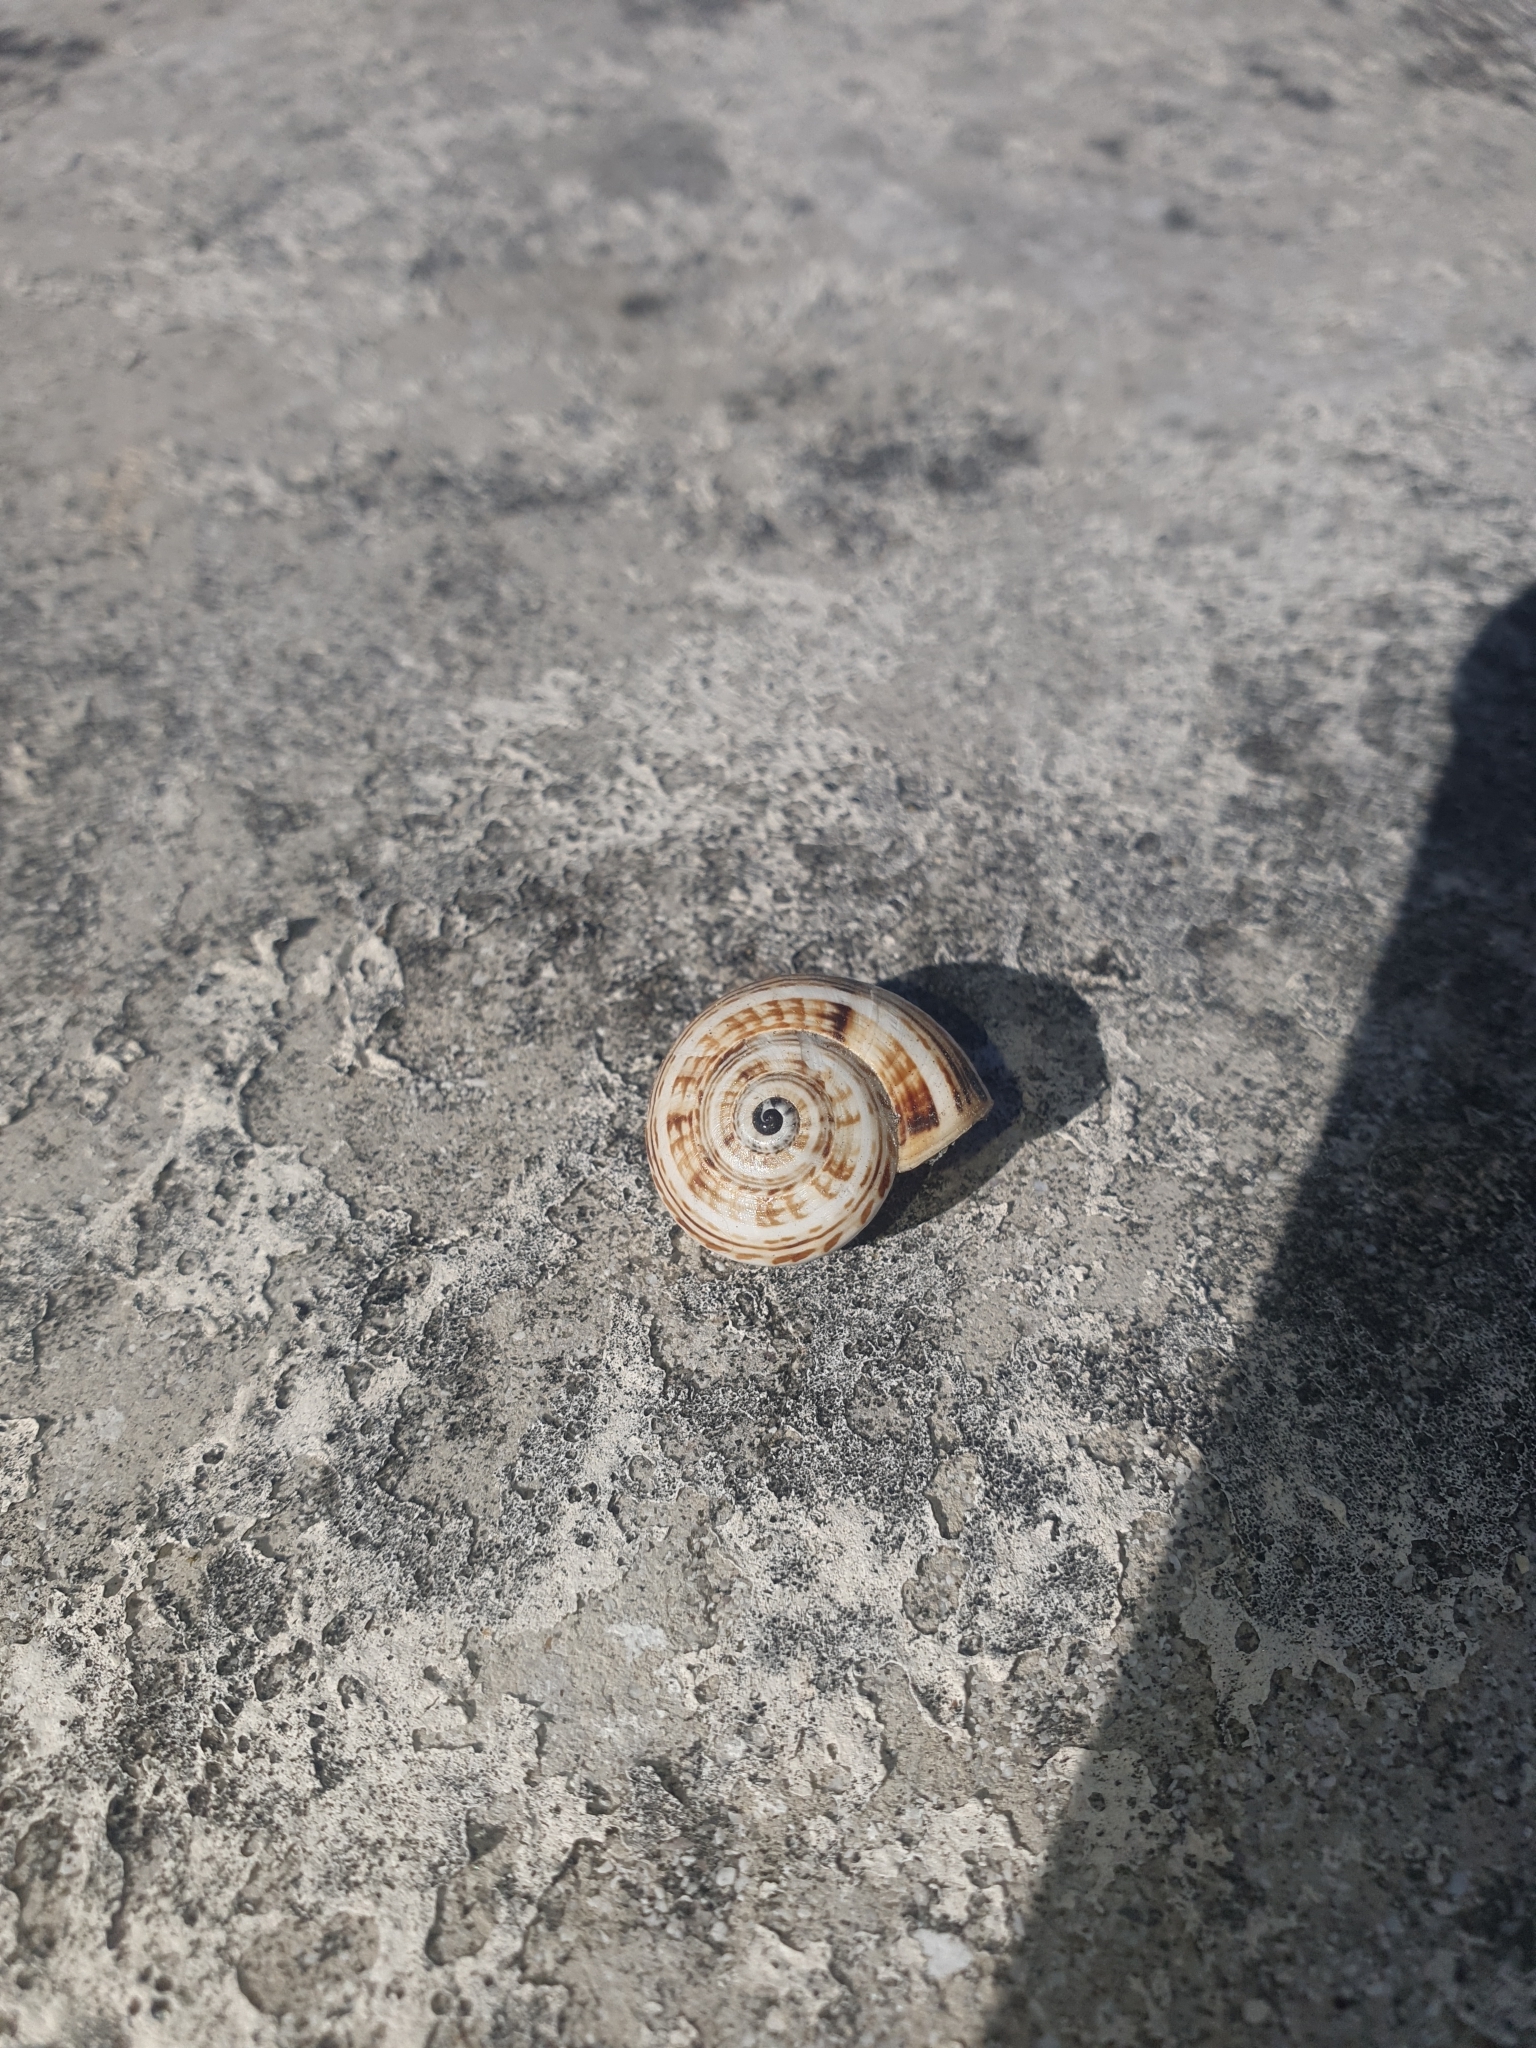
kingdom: Animalia
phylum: Mollusca
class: Gastropoda
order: Stylommatophora
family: Helicidae
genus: Theba
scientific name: Theba pisana
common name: White snail
